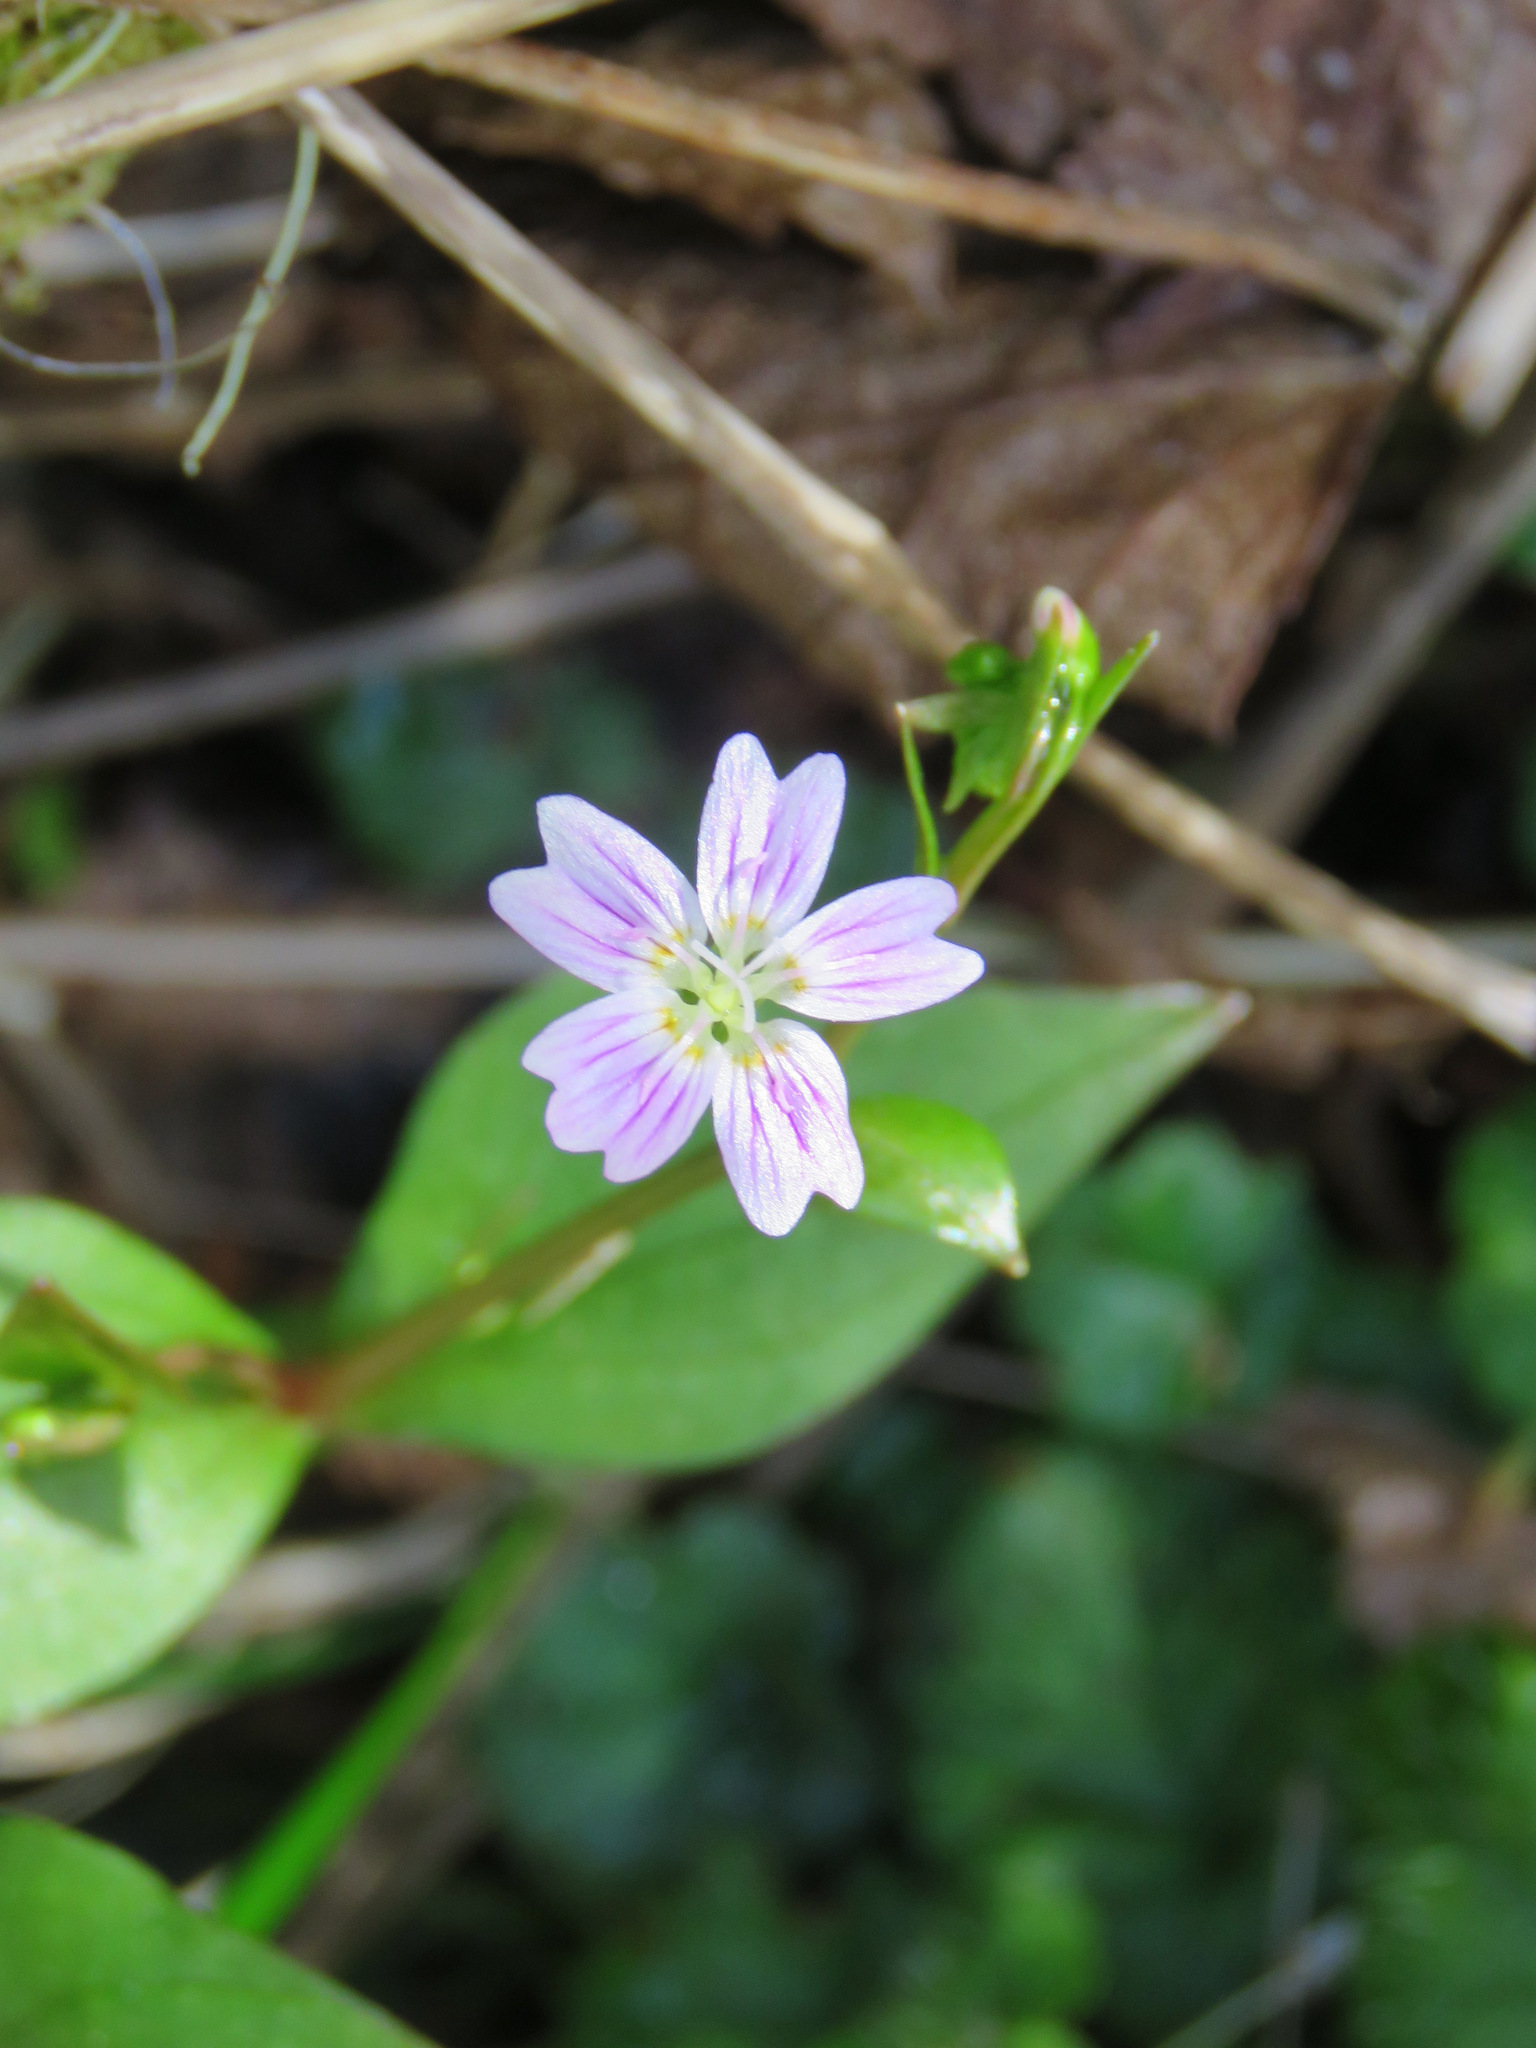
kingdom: Plantae
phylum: Tracheophyta
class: Magnoliopsida
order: Caryophyllales
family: Montiaceae
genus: Claytonia
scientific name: Claytonia sibirica
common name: Pink purslane
